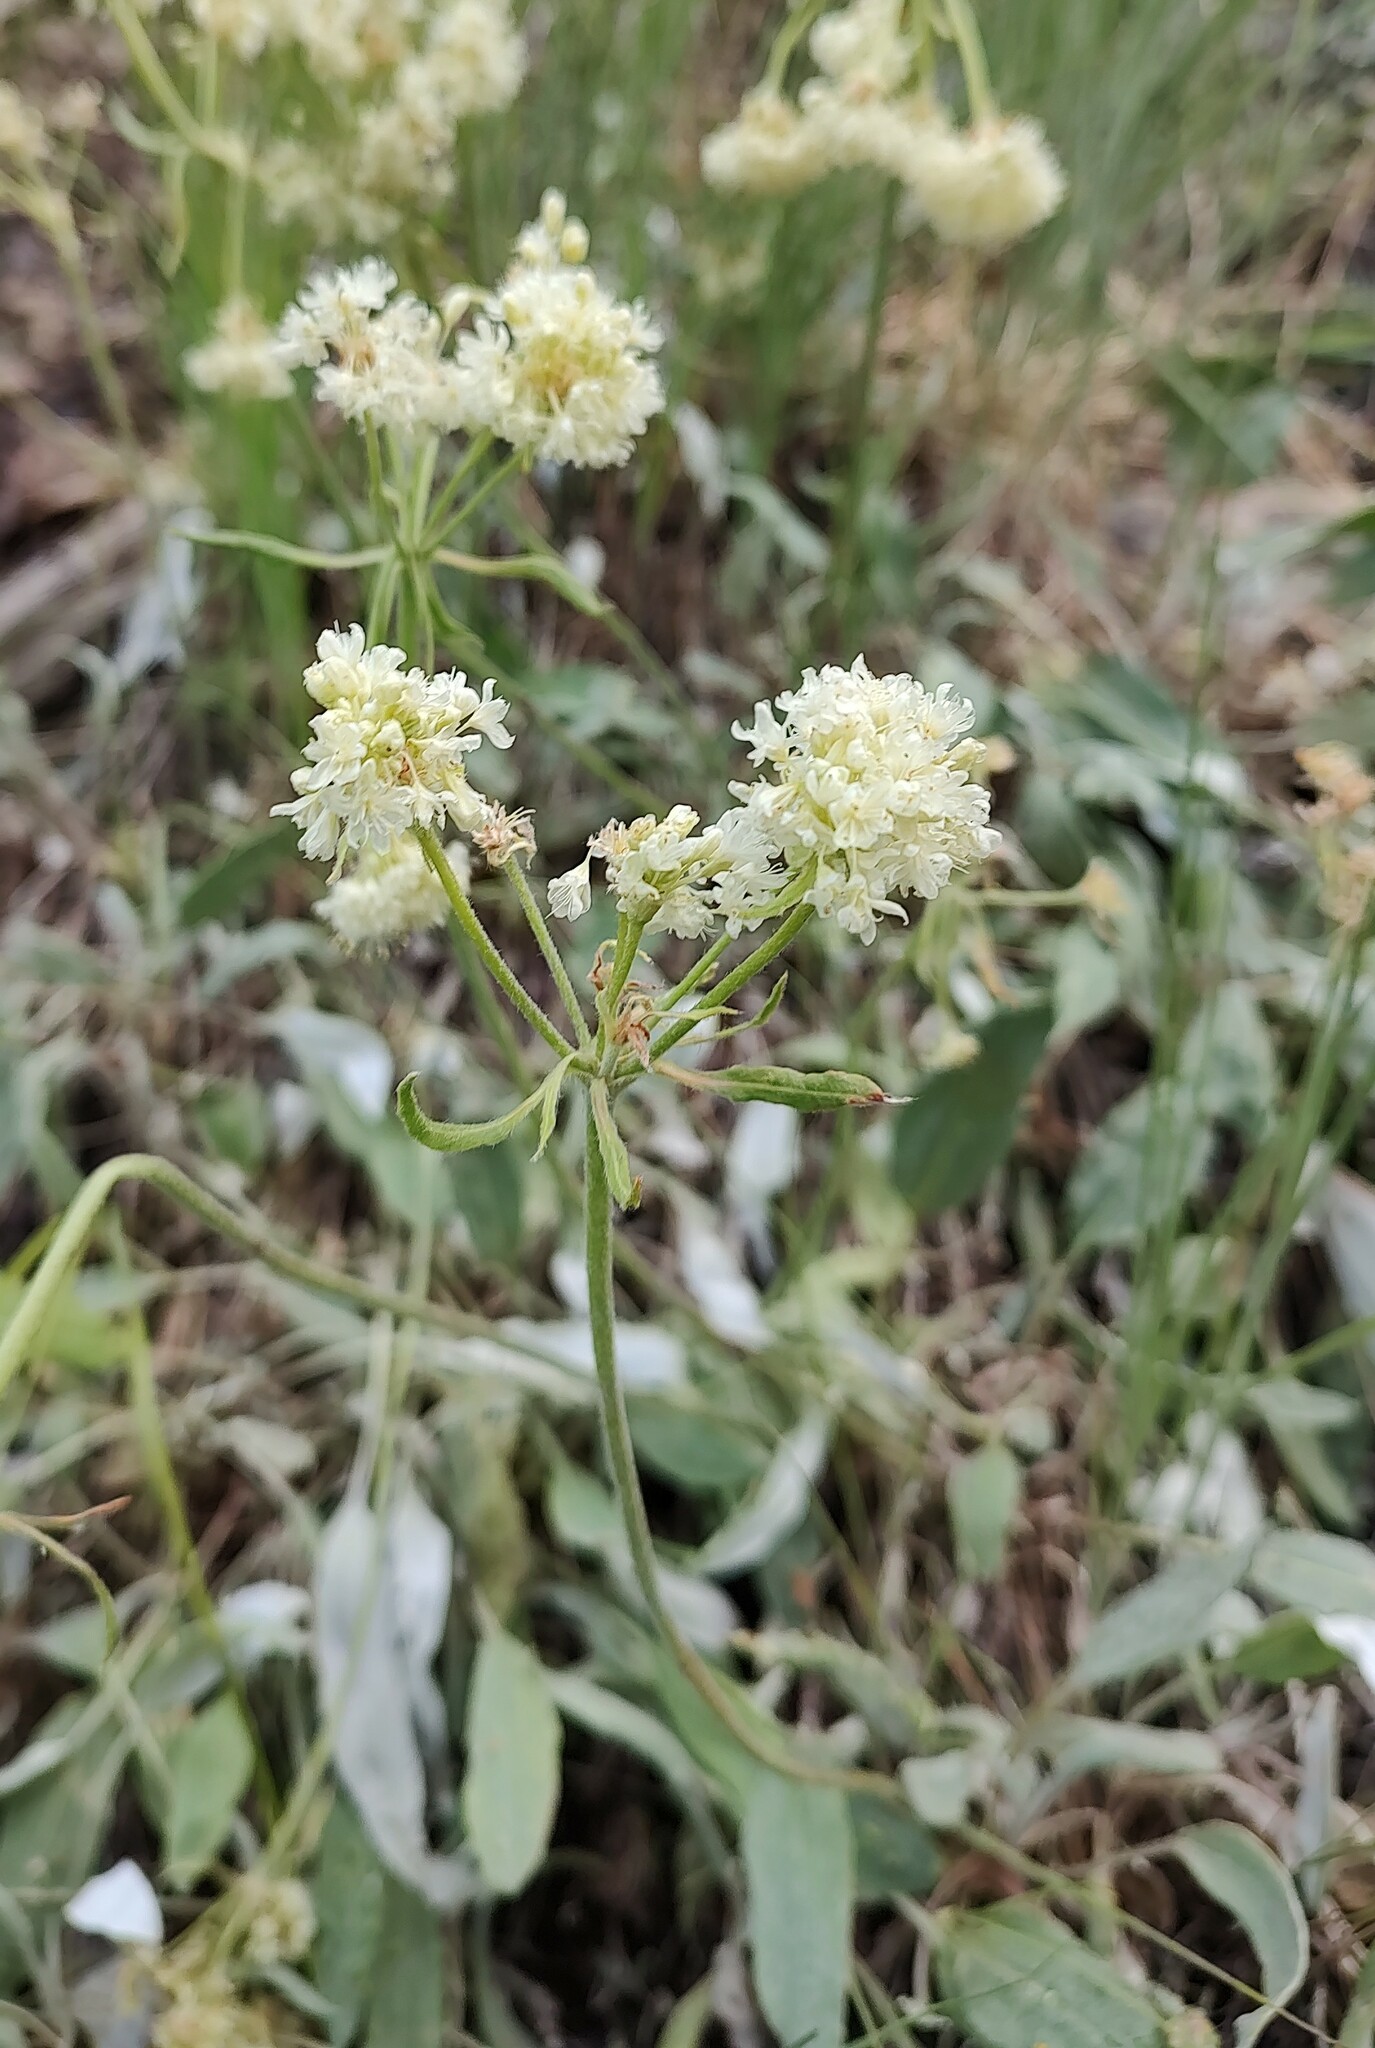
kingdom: Plantae
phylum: Tracheophyta
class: Magnoliopsida
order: Caryophyllales
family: Polygonaceae
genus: Eriogonum
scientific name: Eriogonum compositum
